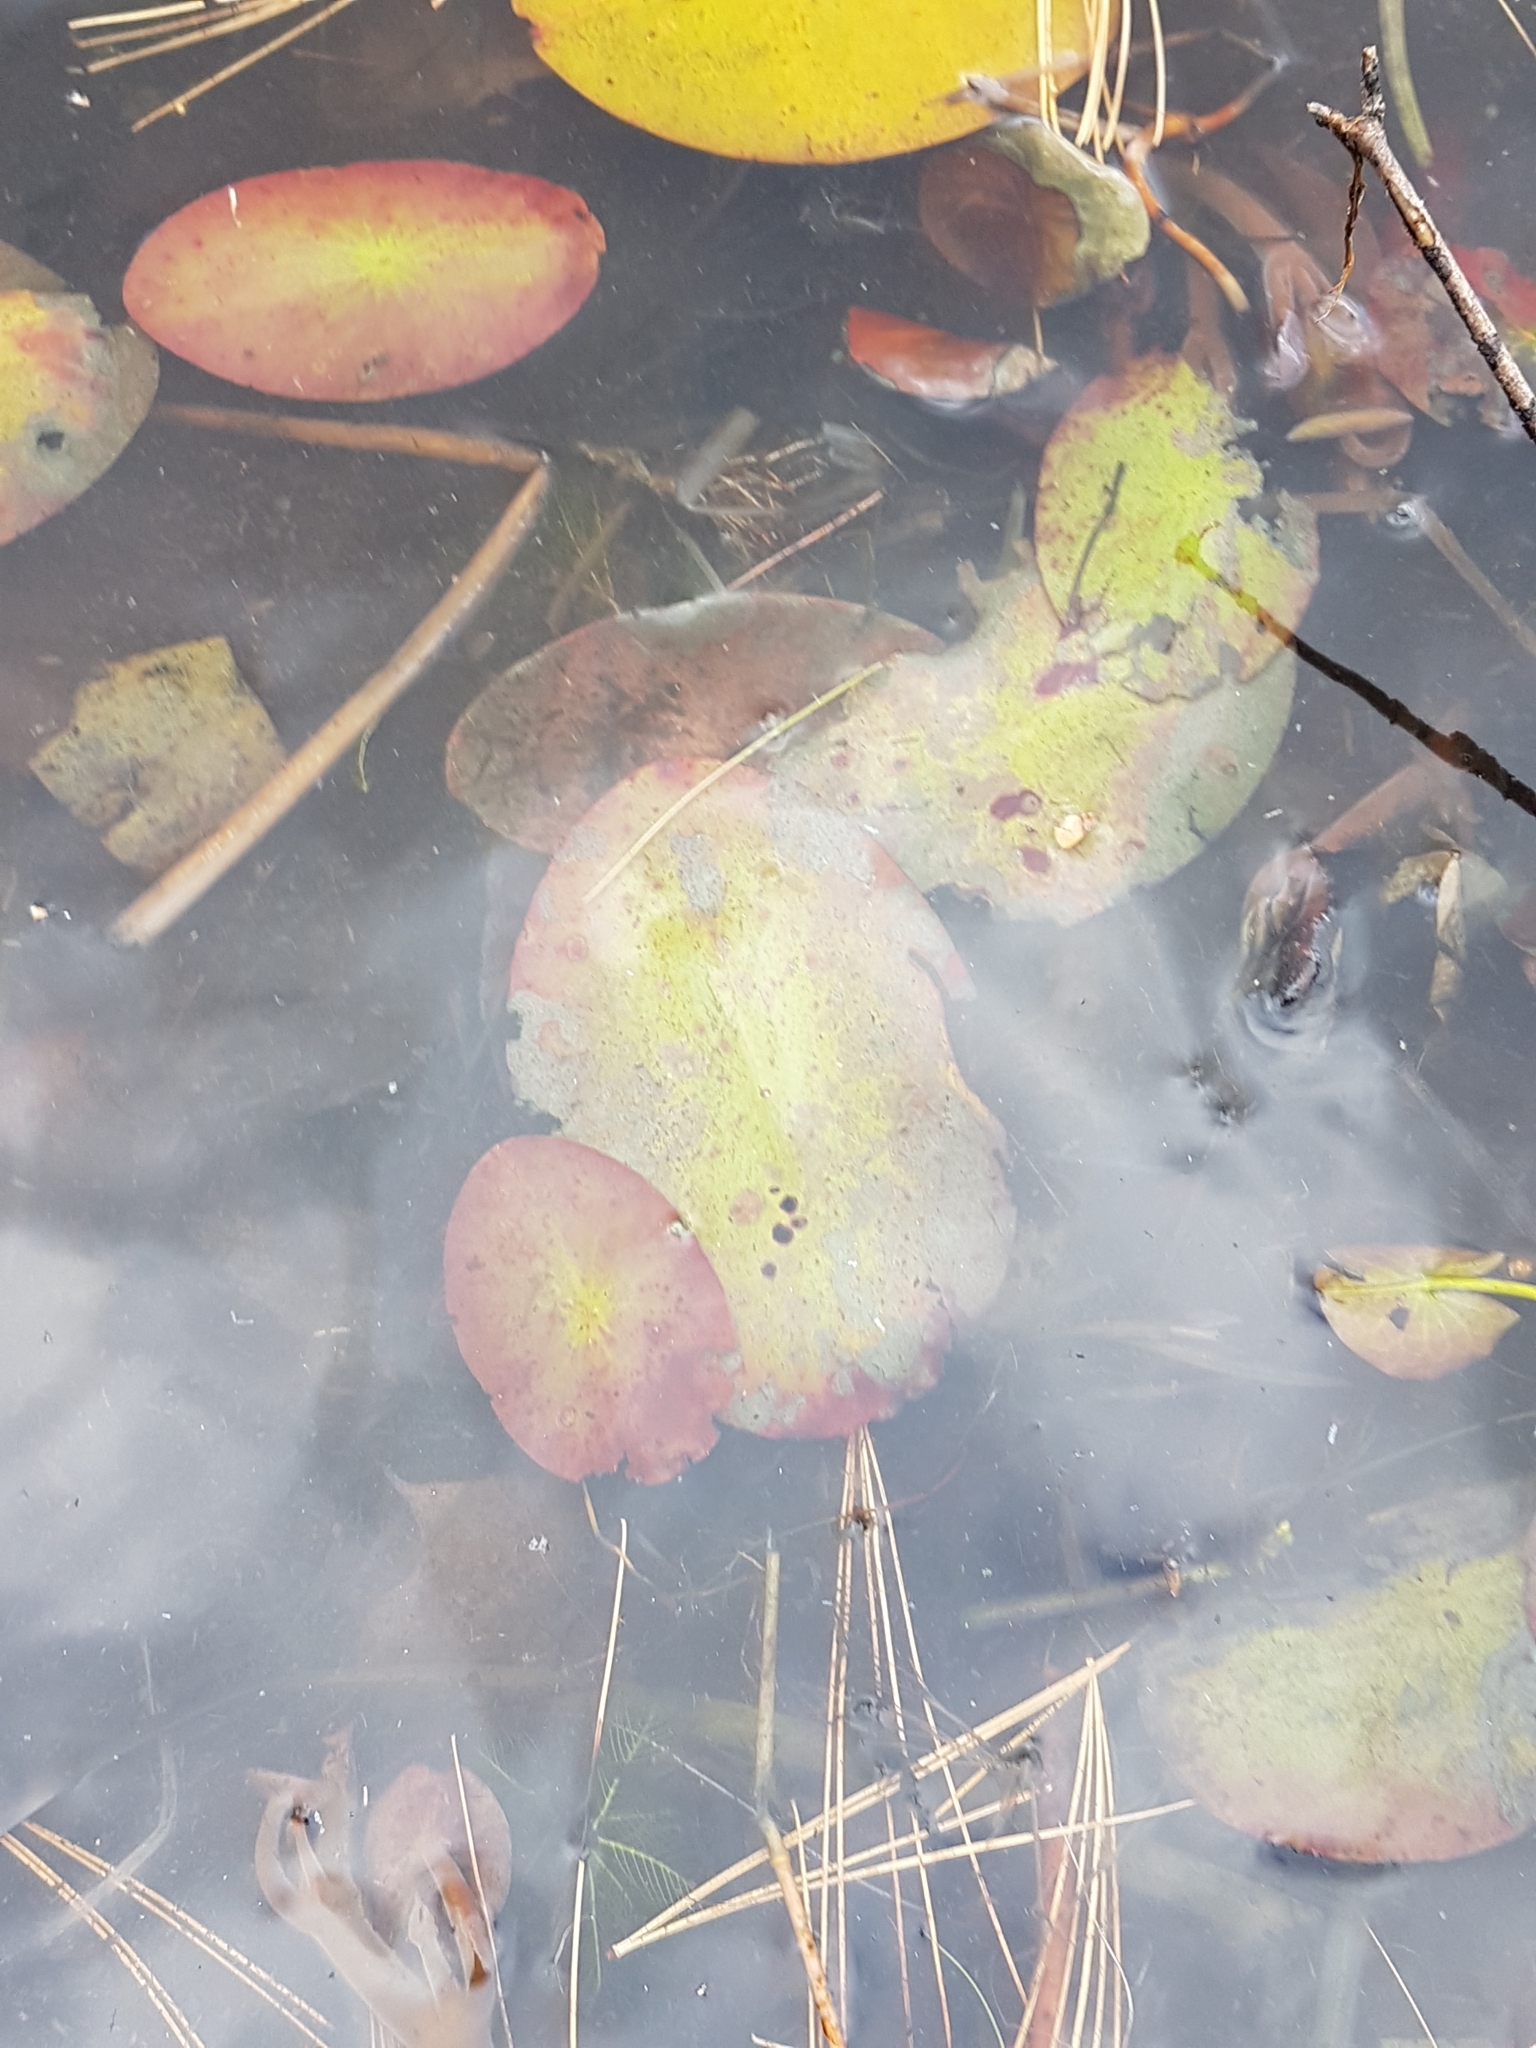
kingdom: Plantae
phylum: Tracheophyta
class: Magnoliopsida
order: Nymphaeales
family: Cabombaceae
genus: Brasenia
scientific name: Brasenia schreberi
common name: Water-shield
